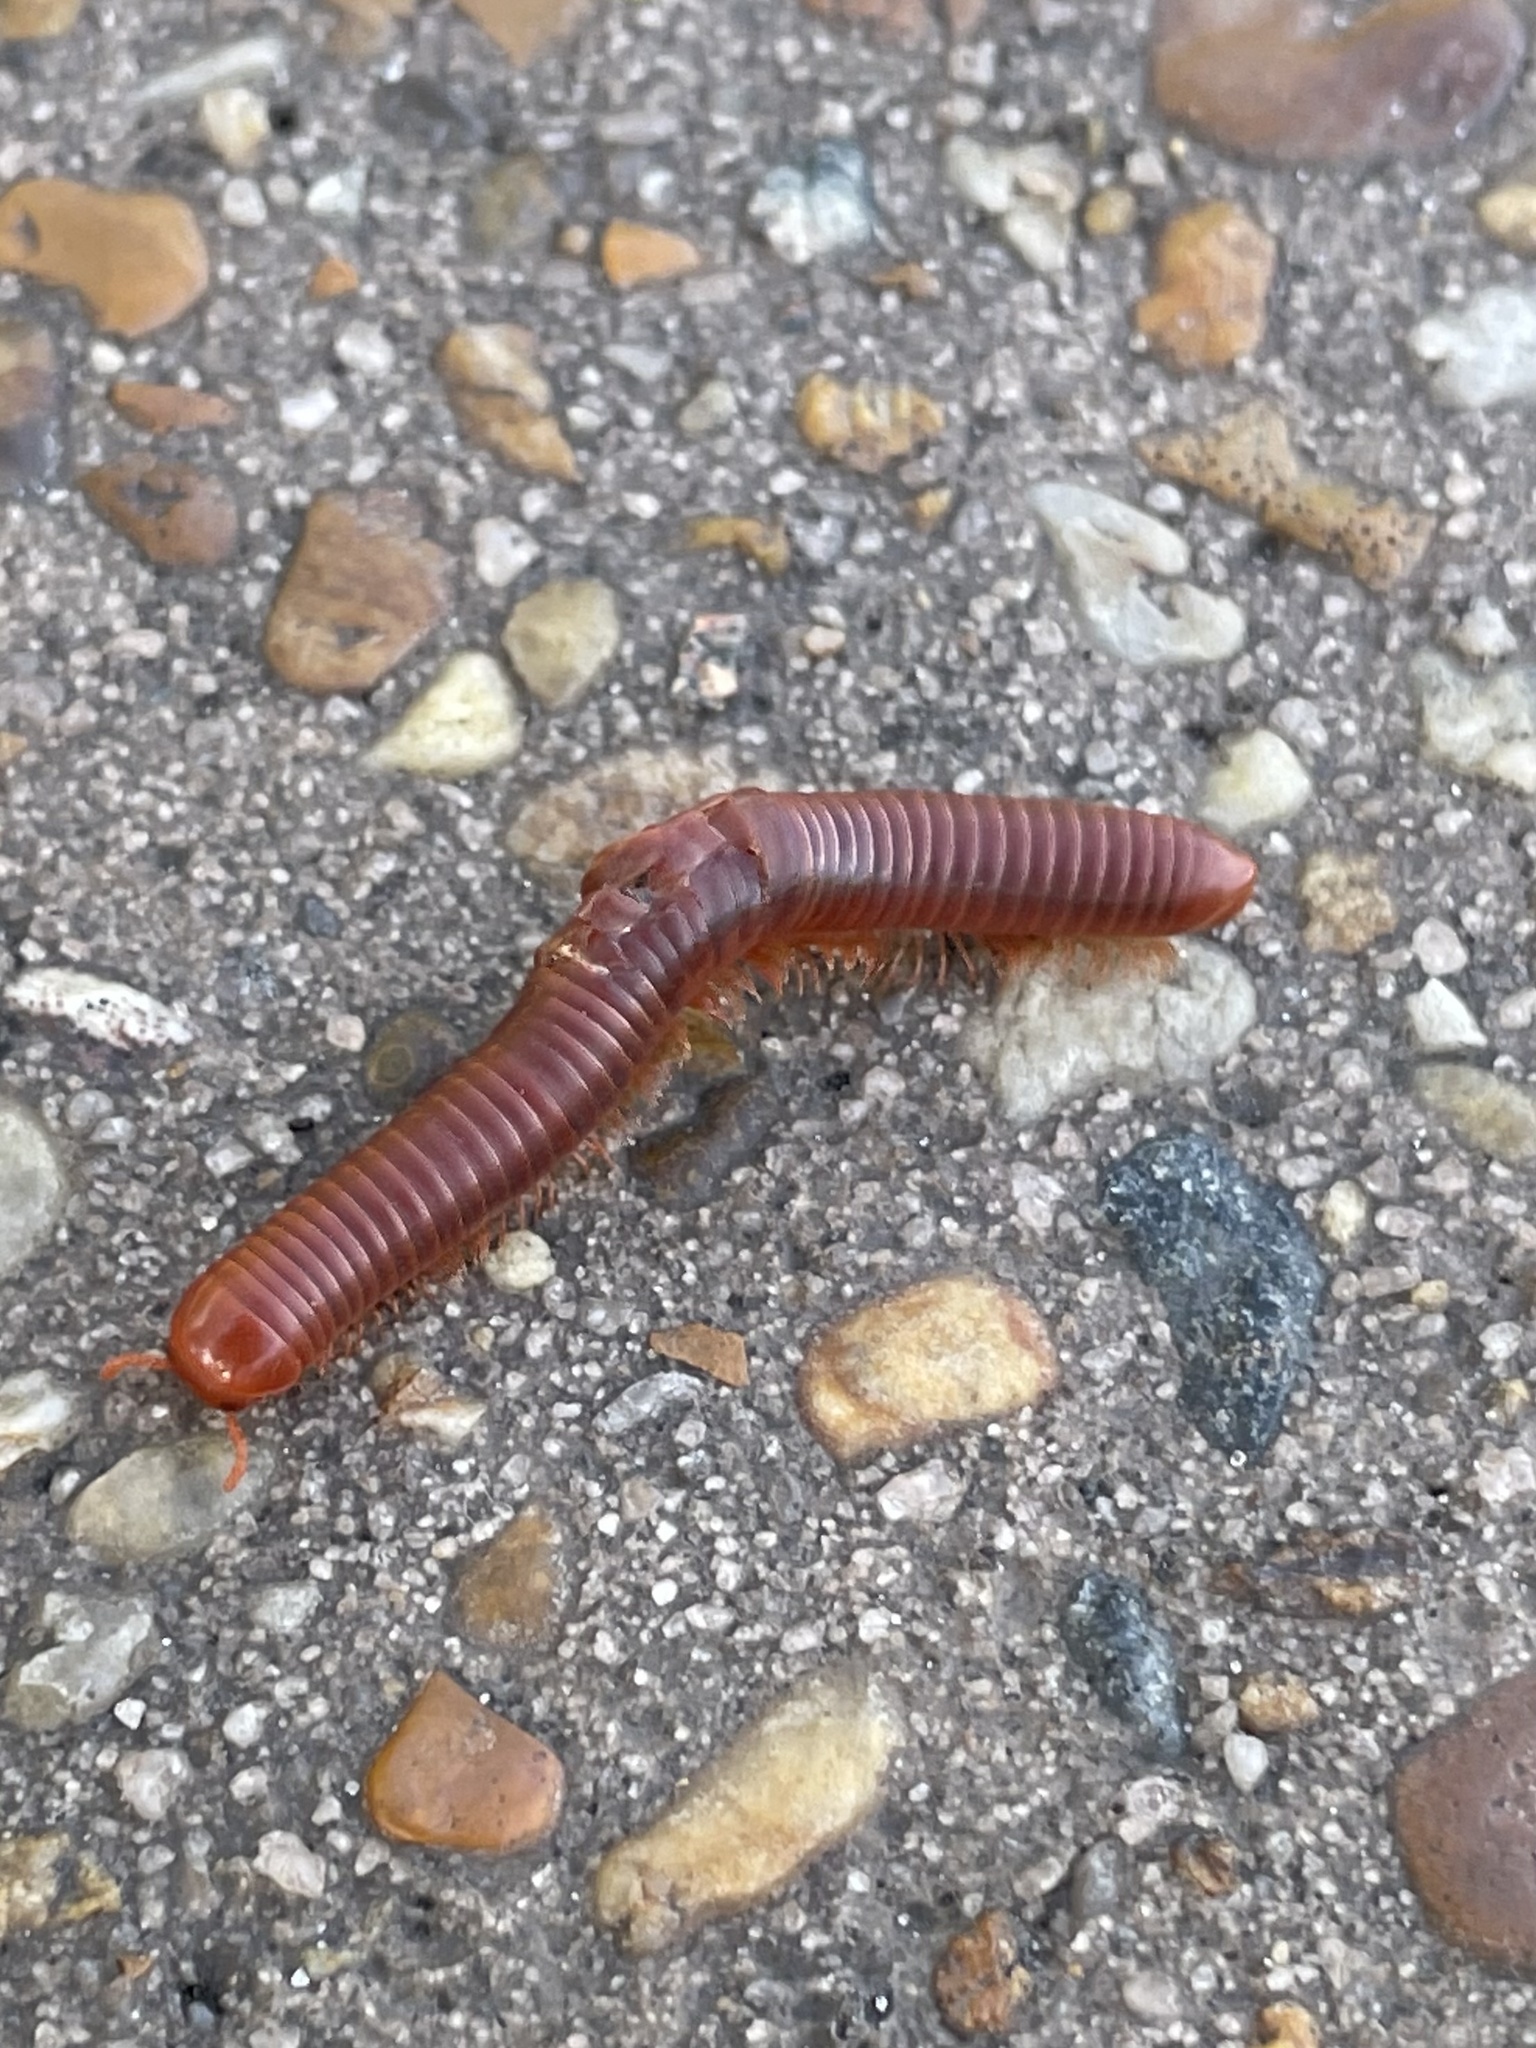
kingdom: Animalia
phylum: Arthropoda
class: Diplopoda
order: Spirobolida
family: Pachybolidae
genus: Trigoniulus
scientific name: Trigoniulus corallinus
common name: Millipede
